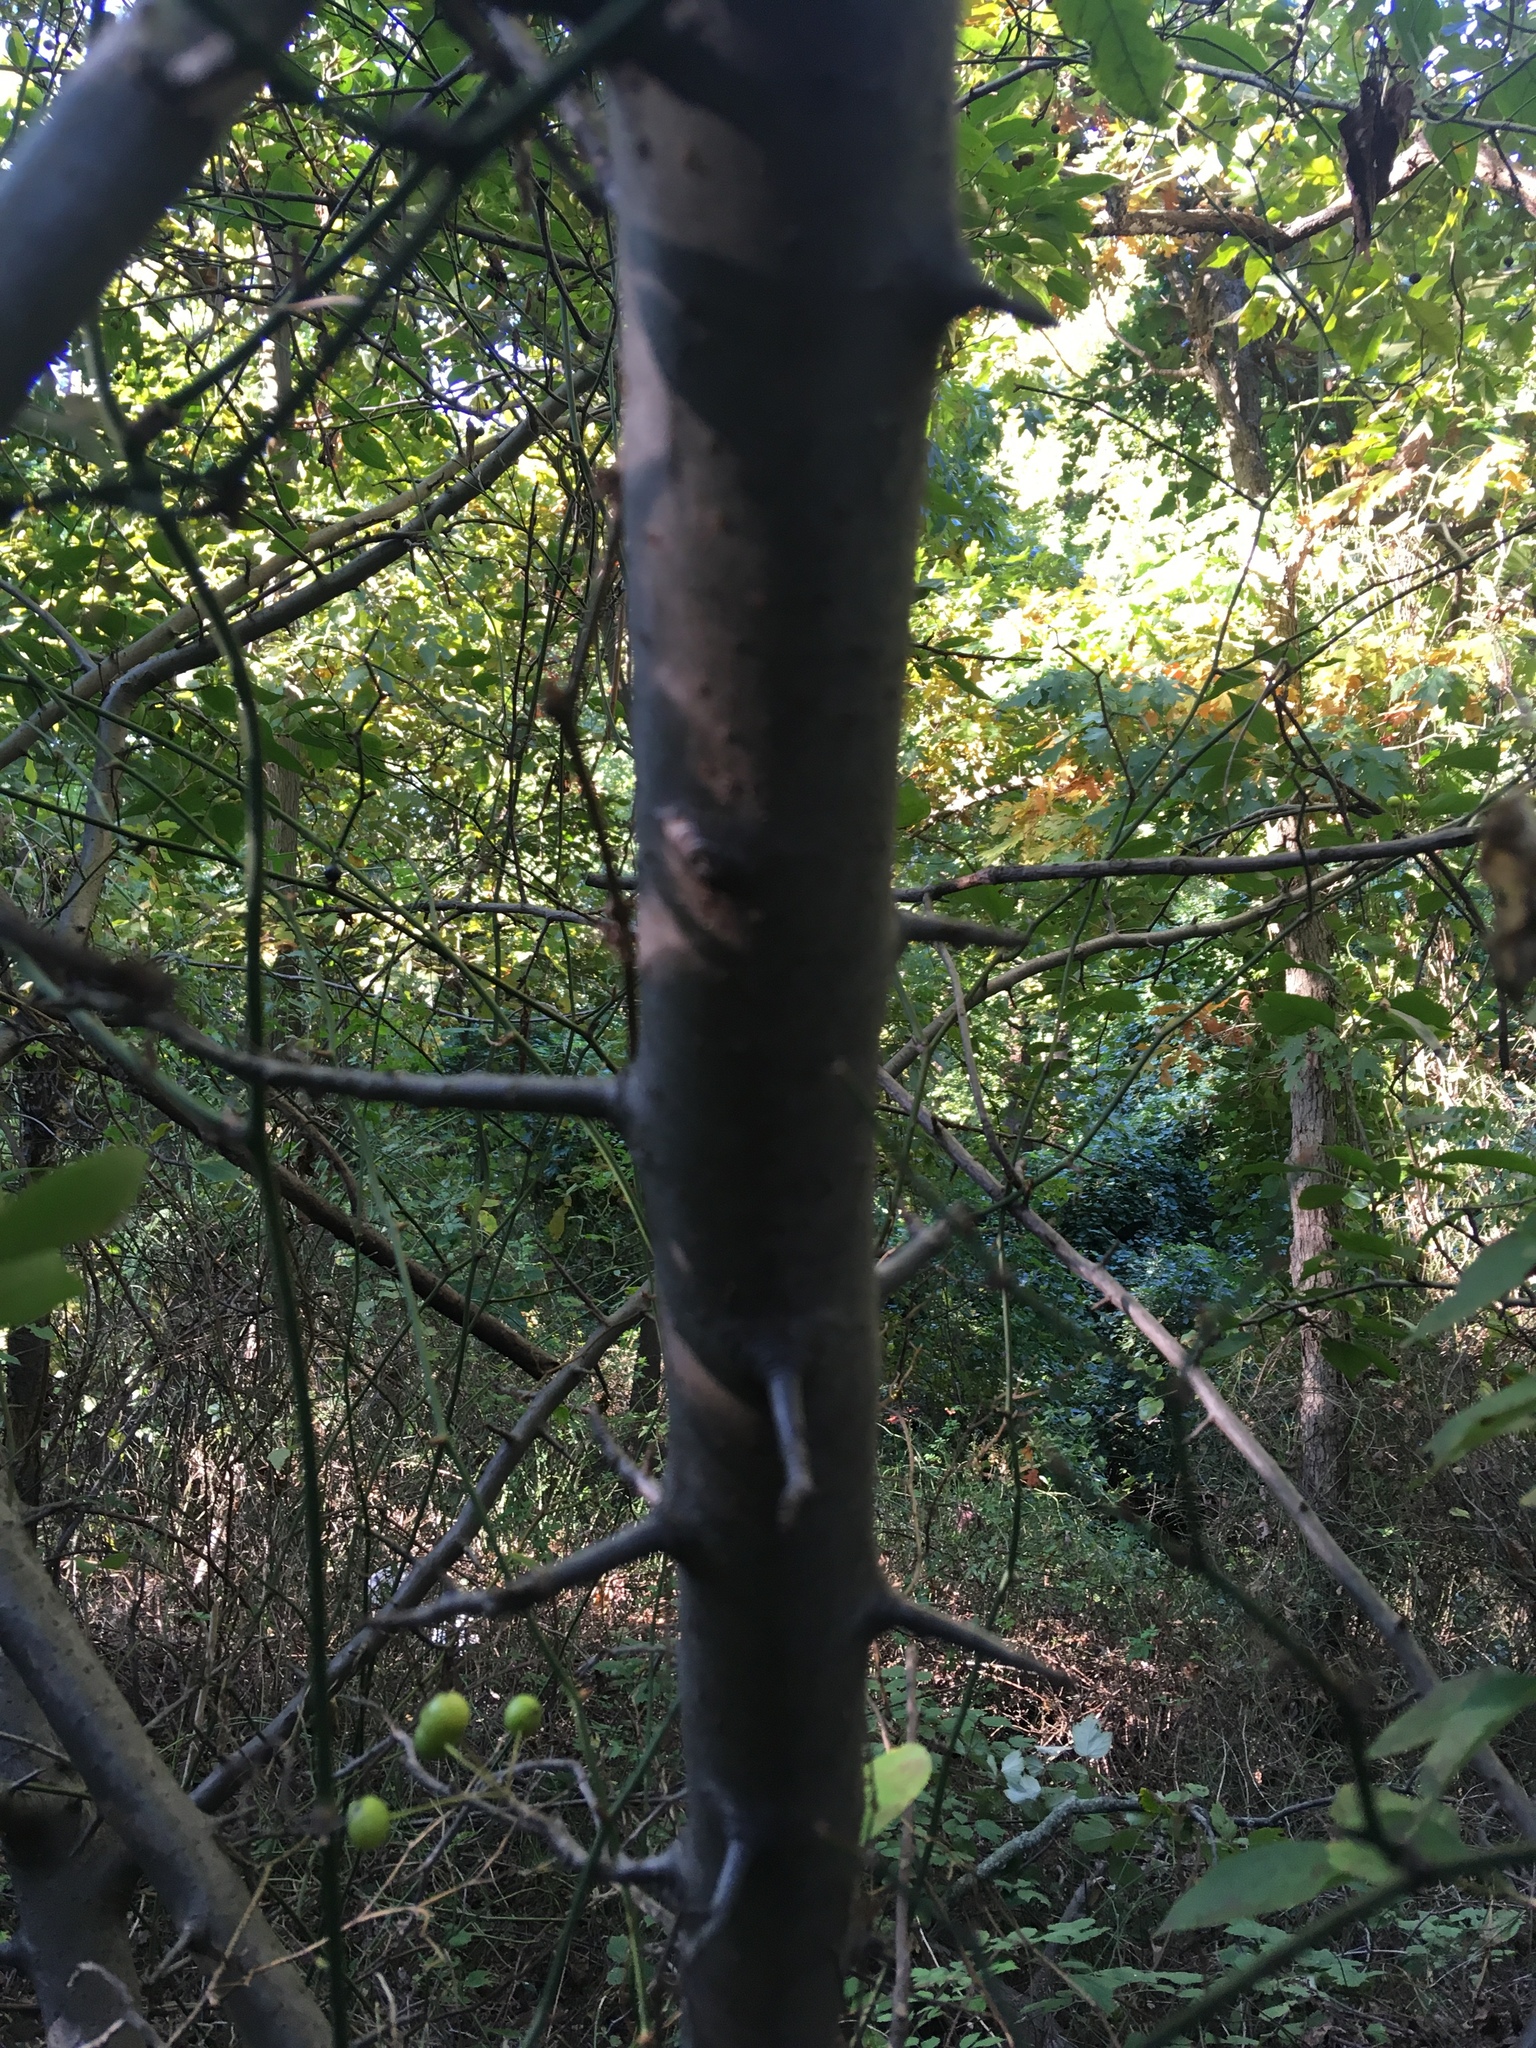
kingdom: Plantae
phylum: Tracheophyta
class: Magnoliopsida
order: Rosales
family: Rosaceae
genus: Malus
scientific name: Malus hupehensis
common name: Chinese crab apple
